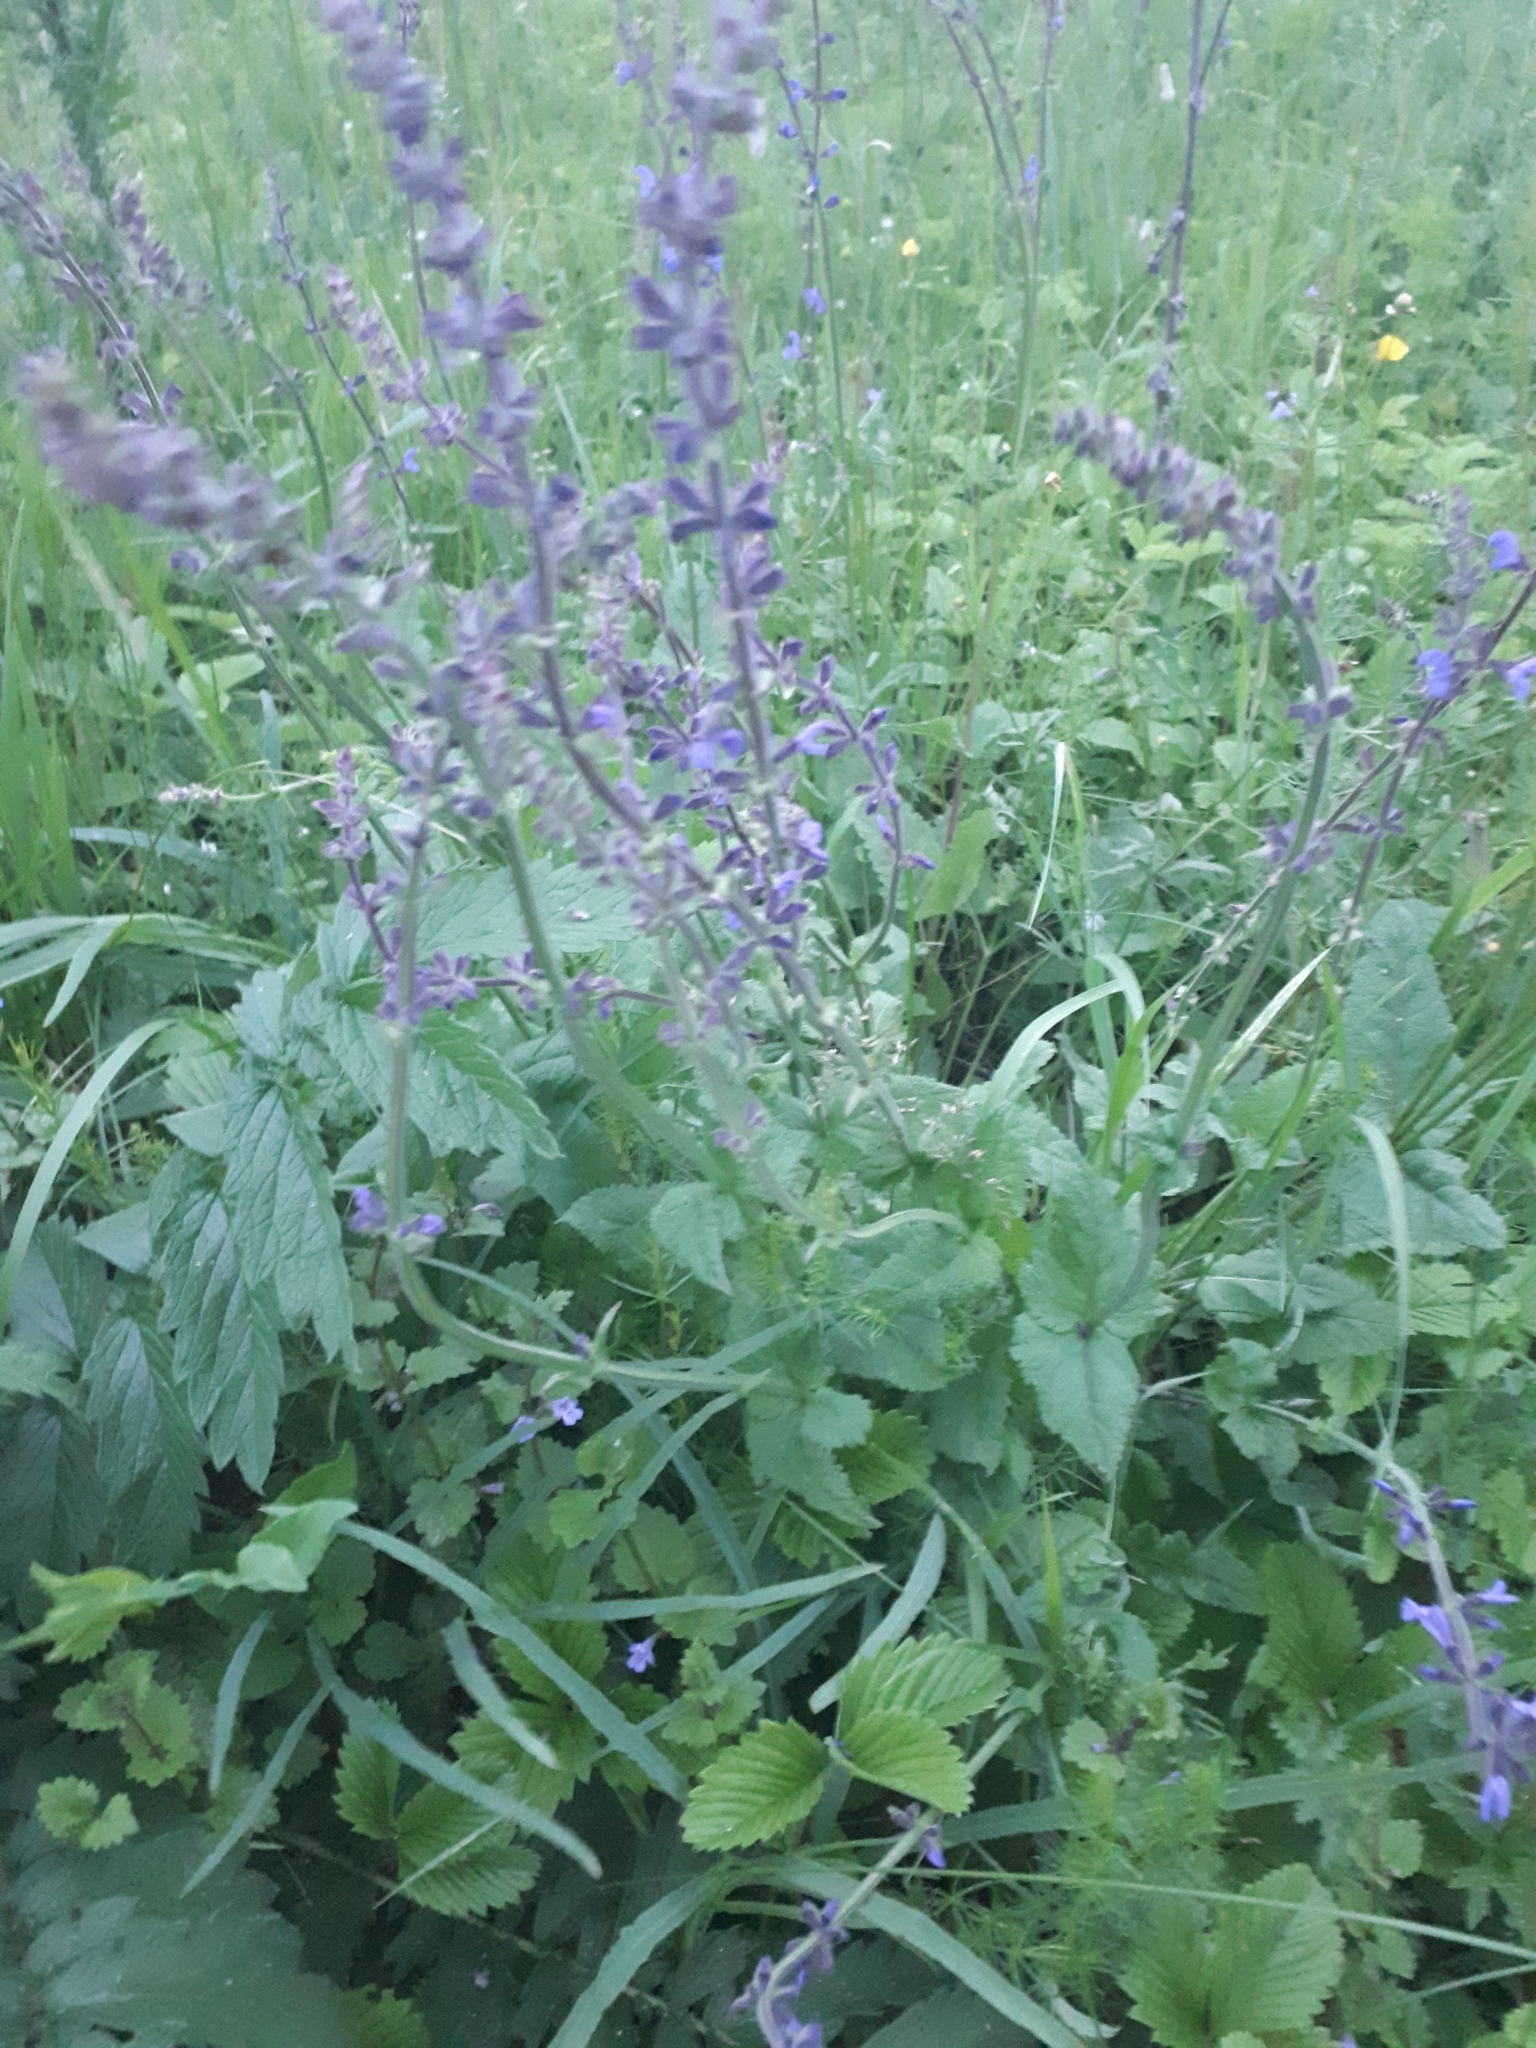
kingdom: Plantae
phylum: Tracheophyta
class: Magnoliopsida
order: Lamiales
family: Lamiaceae
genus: Salvia
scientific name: Salvia dumetorum
